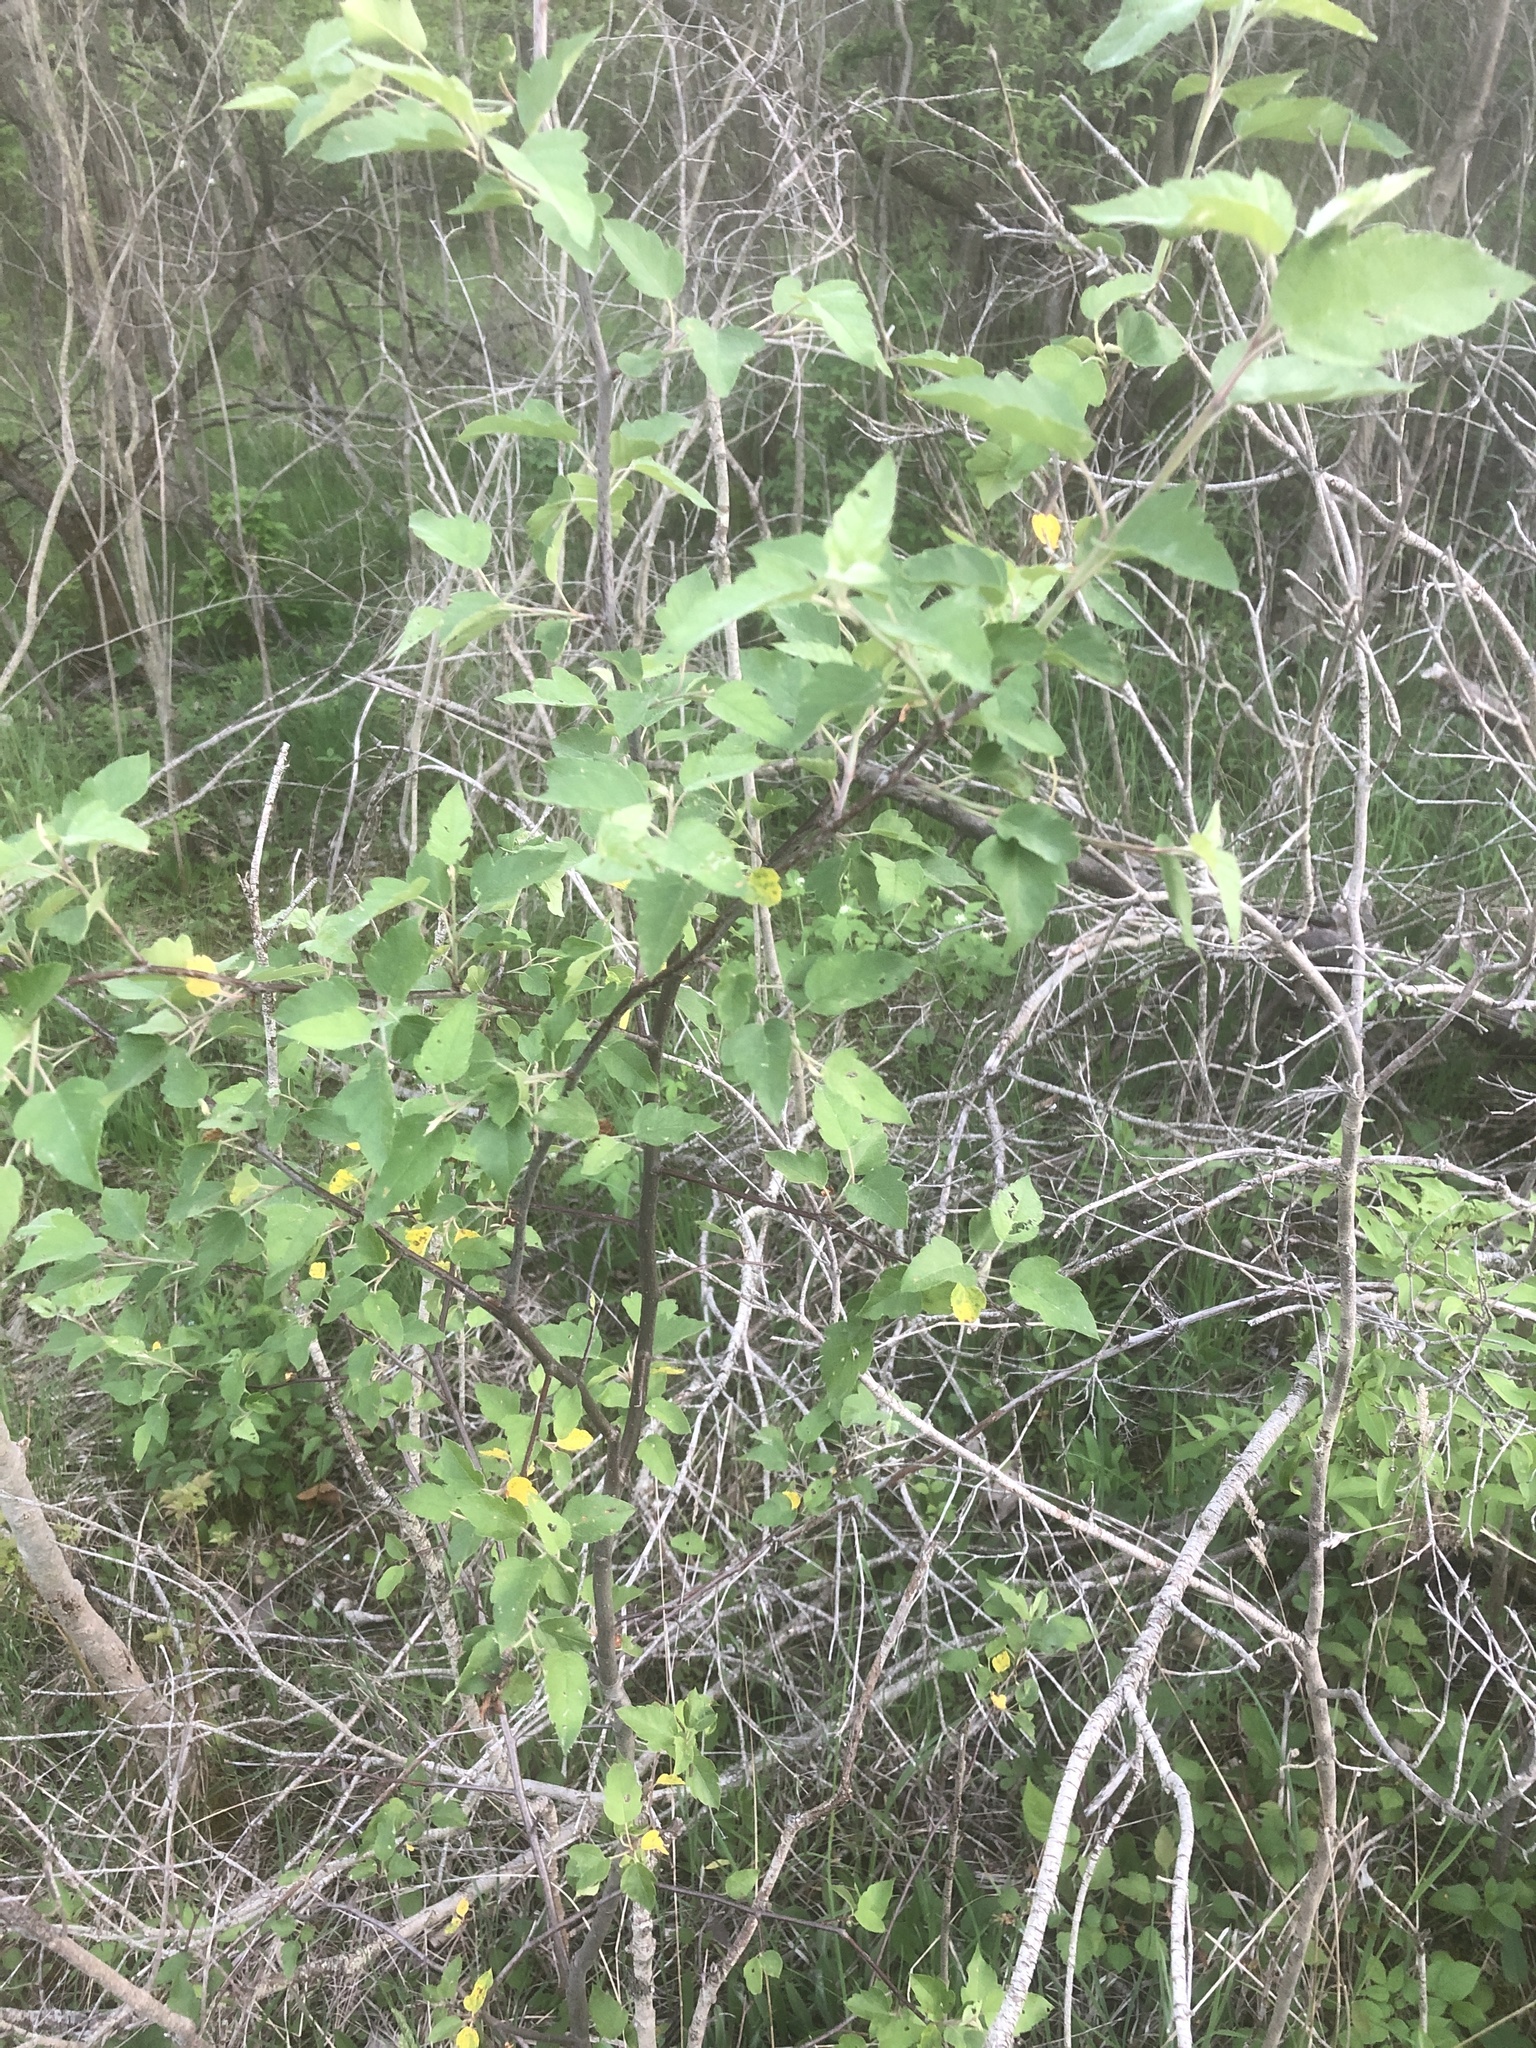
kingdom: Plantae
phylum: Tracheophyta
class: Magnoliopsida
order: Rosales
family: Rosaceae
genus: Malus
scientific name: Malus coronaria
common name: Sweet crab apple
